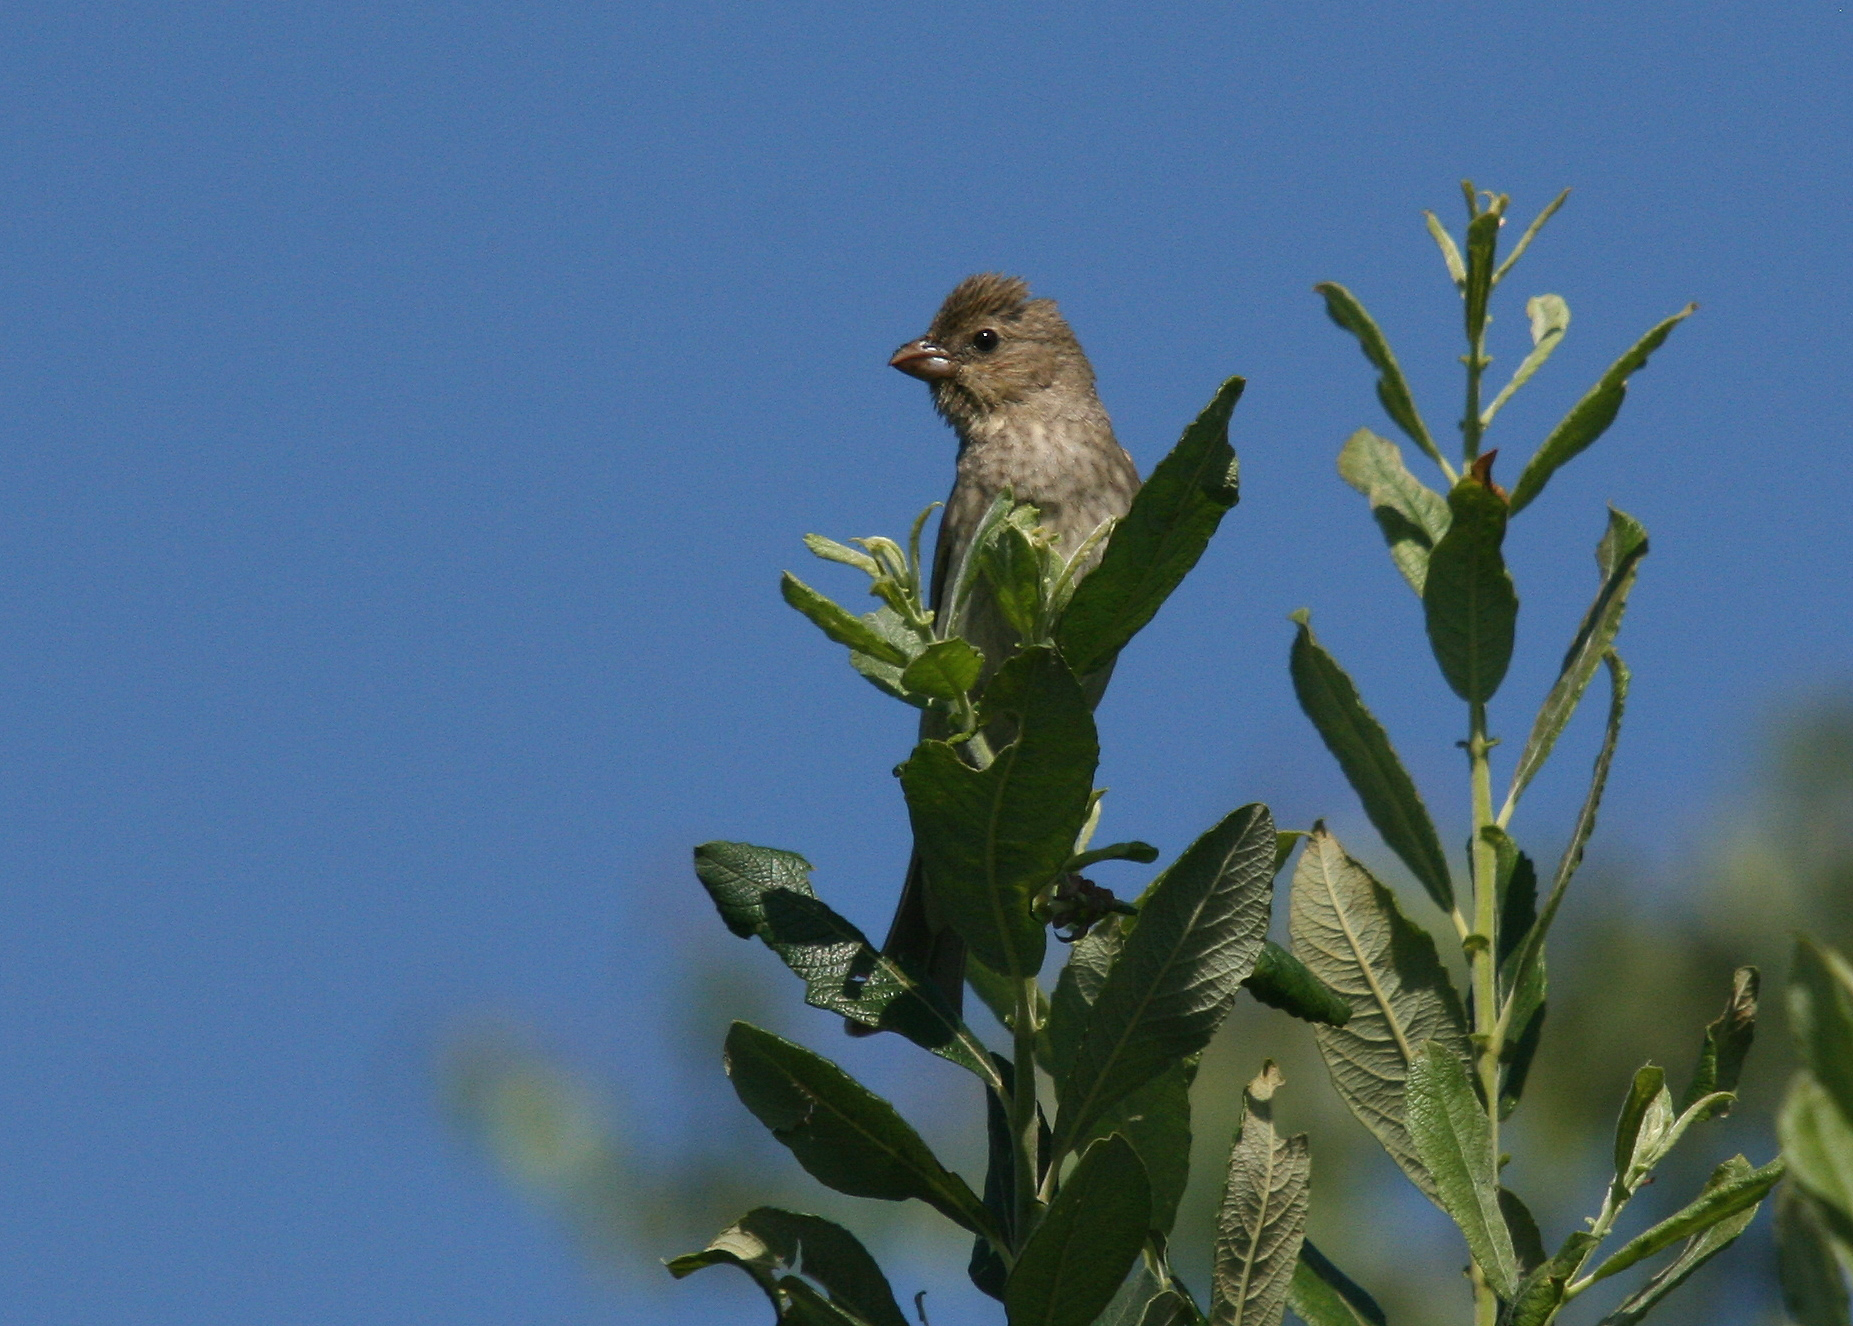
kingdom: Animalia
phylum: Chordata
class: Aves
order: Passeriformes
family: Fringillidae
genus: Carpodacus
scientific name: Carpodacus erythrinus
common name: Common rosefinch
